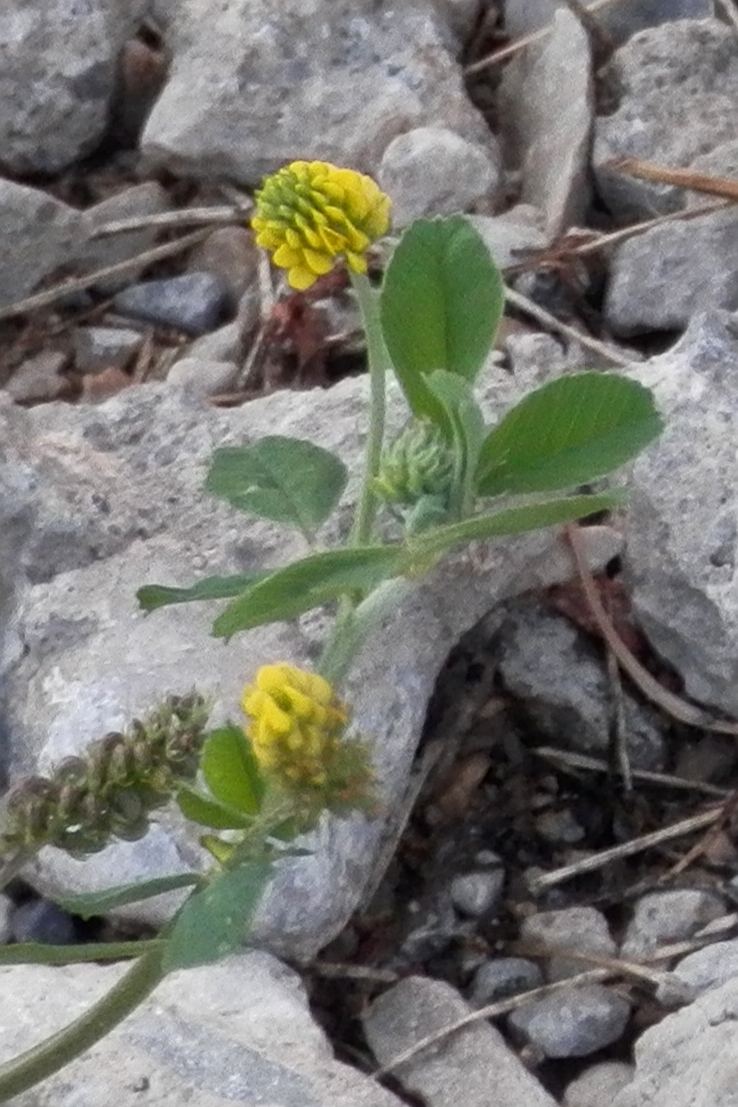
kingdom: Plantae
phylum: Tracheophyta
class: Magnoliopsida
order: Fabales
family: Fabaceae
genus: Medicago
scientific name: Medicago lupulina
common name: Black medick
